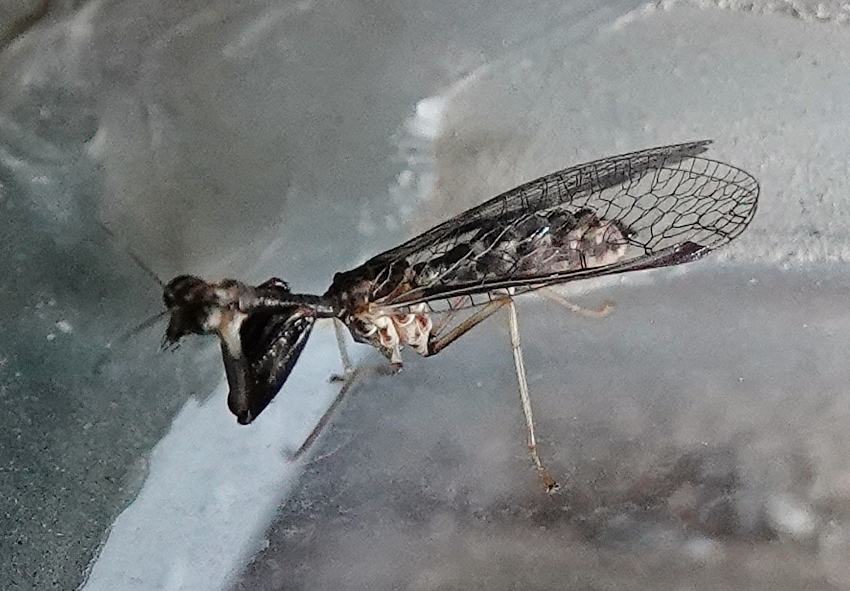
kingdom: Animalia
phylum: Arthropoda
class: Insecta
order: Neuroptera
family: Mantispidae
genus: Dicromantispa
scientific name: Dicromantispa sayi
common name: Say's mantidfly
